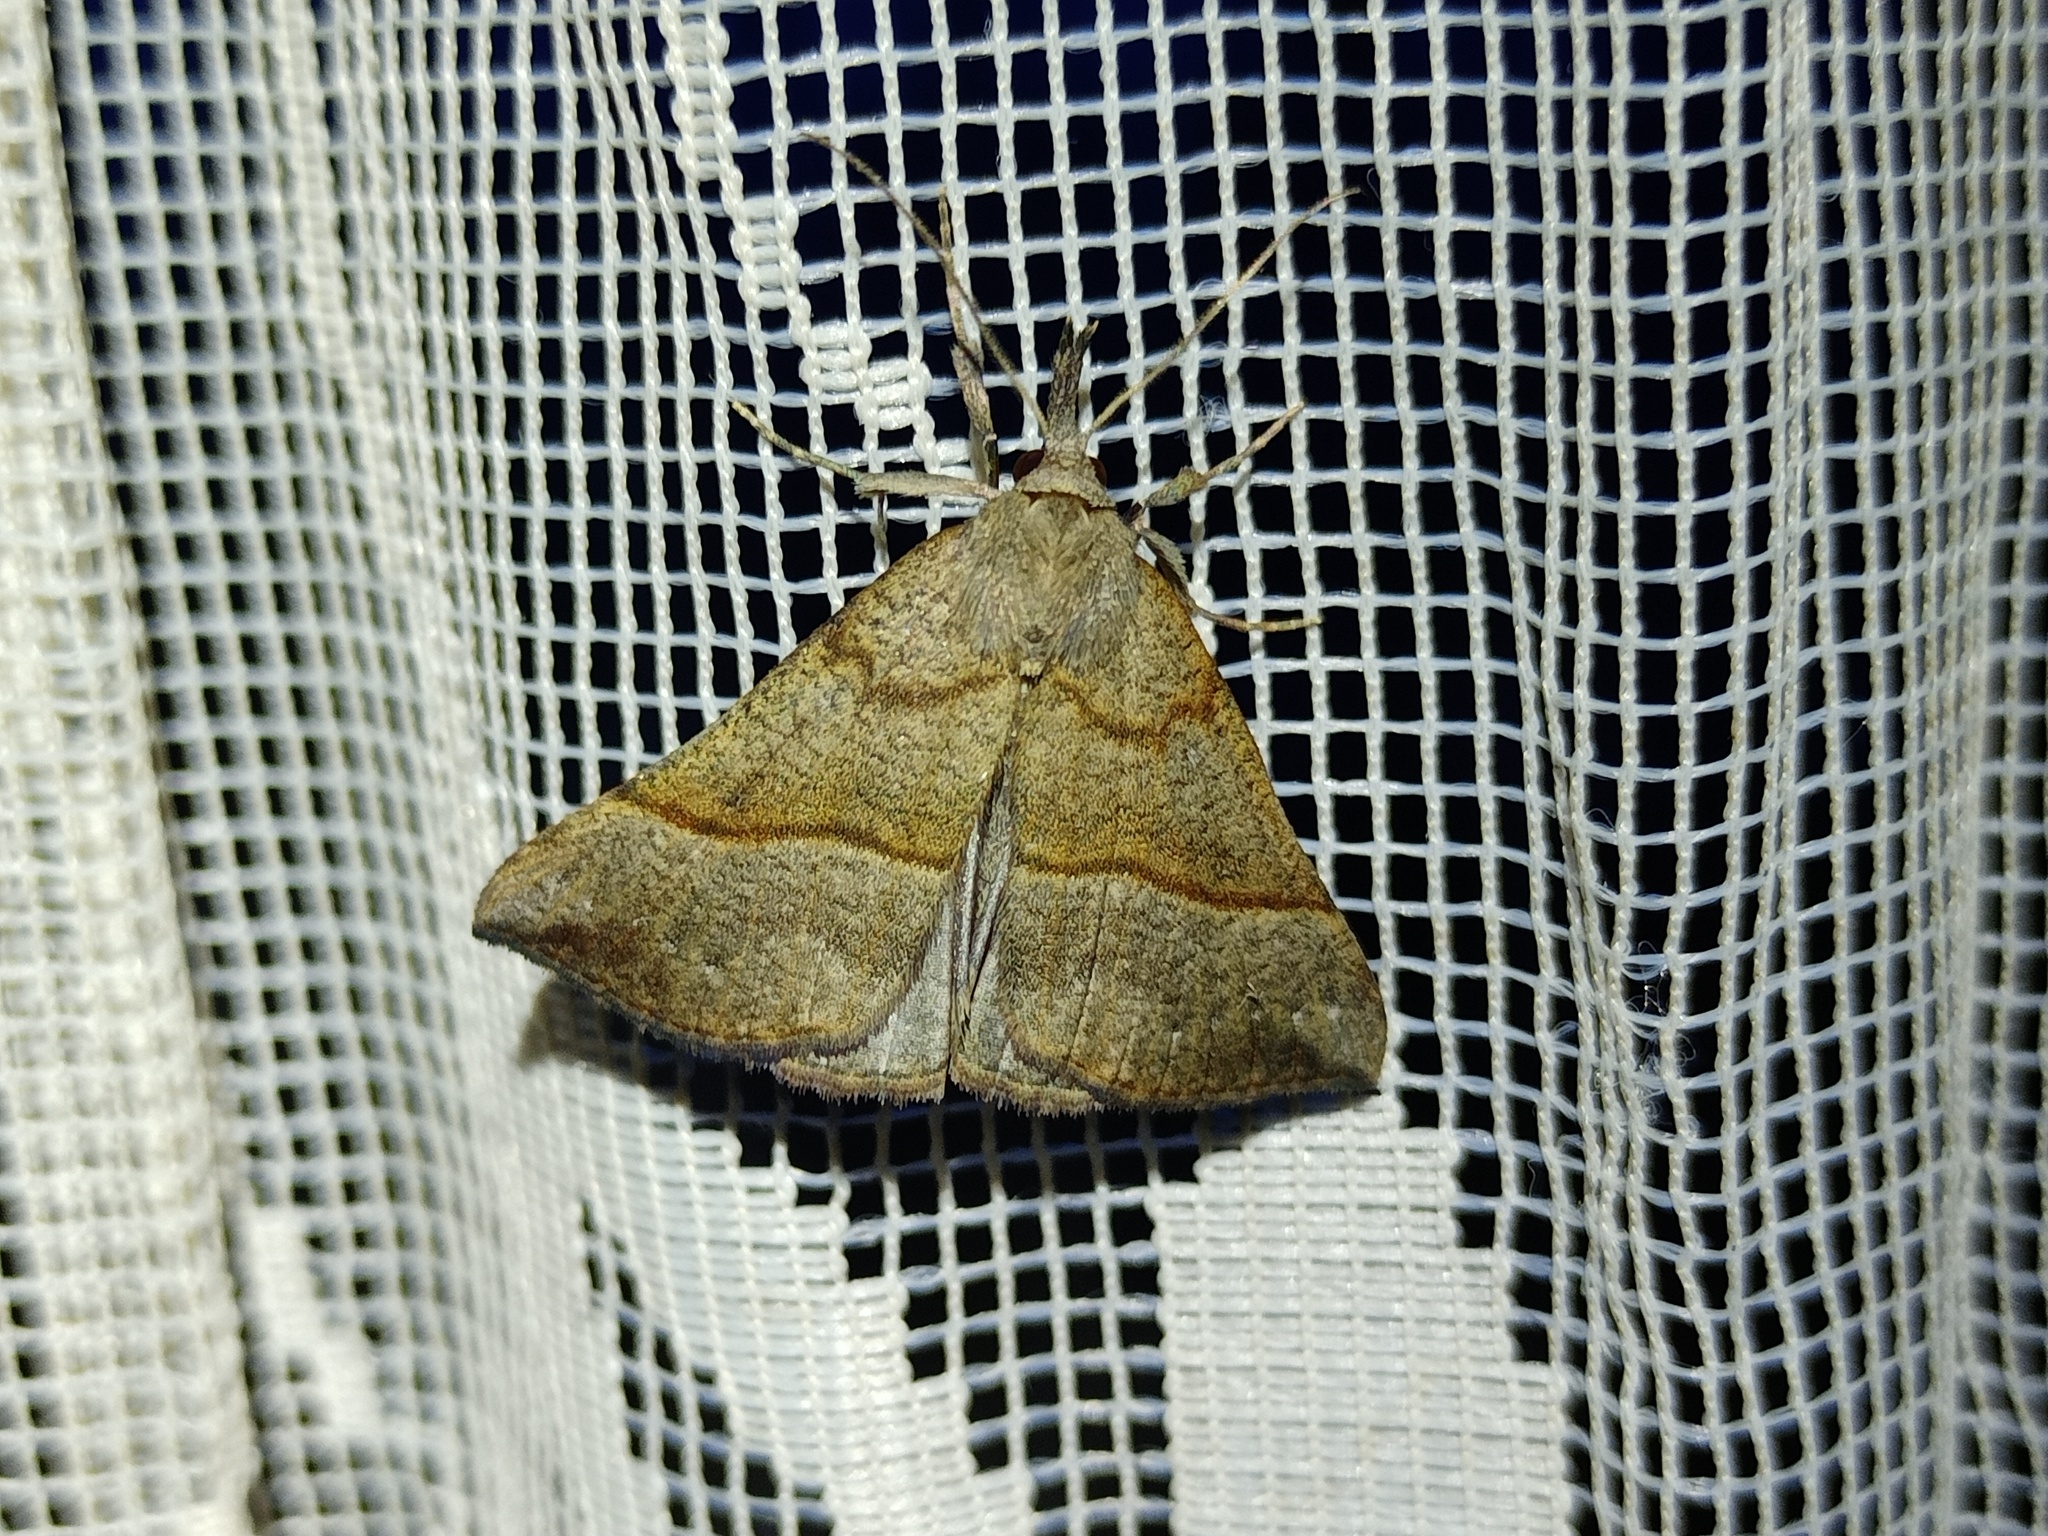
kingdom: Animalia
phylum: Arthropoda
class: Insecta
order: Lepidoptera
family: Erebidae
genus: Hypena
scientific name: Hypena proboscidalis
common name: Snout
